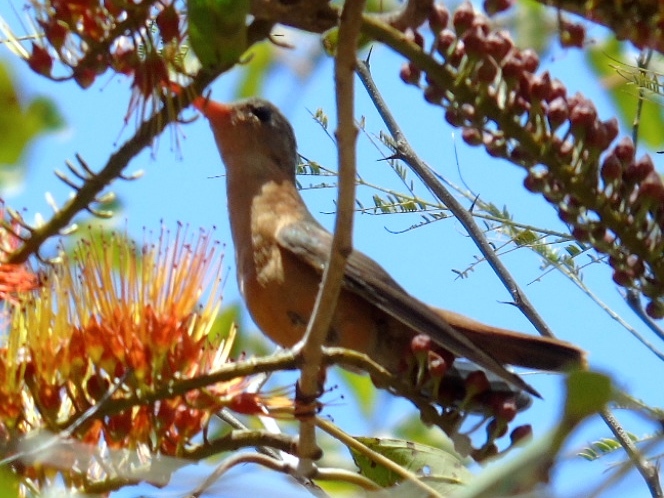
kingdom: Animalia
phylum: Chordata
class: Aves
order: Apodiformes
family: Trochilidae
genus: Amazilia
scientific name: Amazilia rutila
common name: Cinnamon hummingbird
